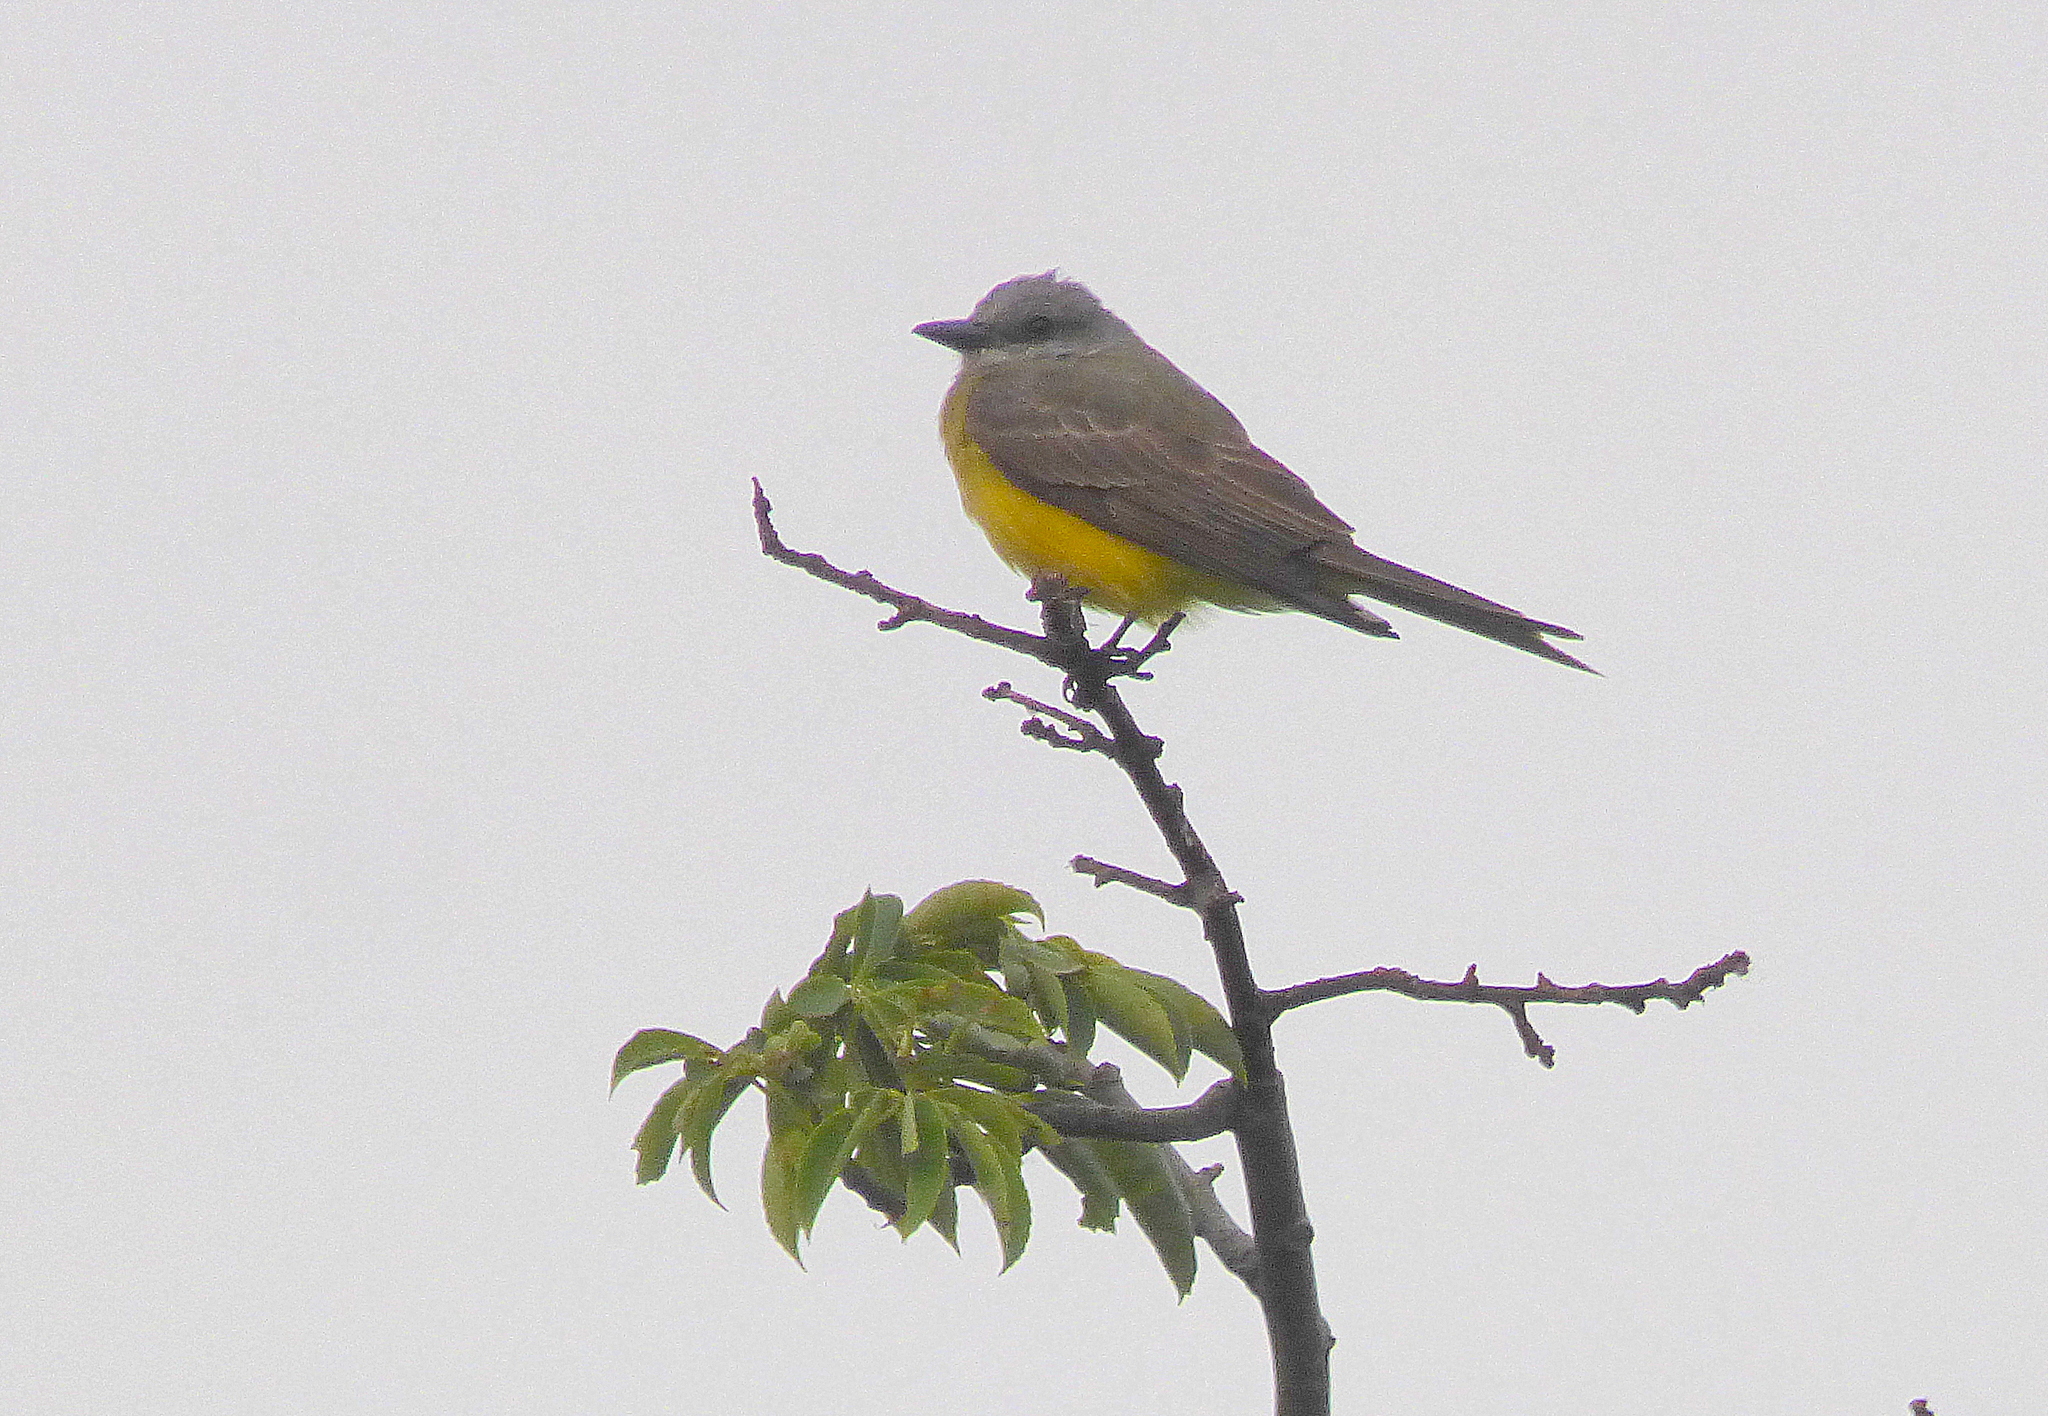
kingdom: Animalia
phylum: Chordata
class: Aves
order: Passeriformes
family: Tyrannidae
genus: Tyrannus
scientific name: Tyrannus melancholicus
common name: Tropical kingbird
